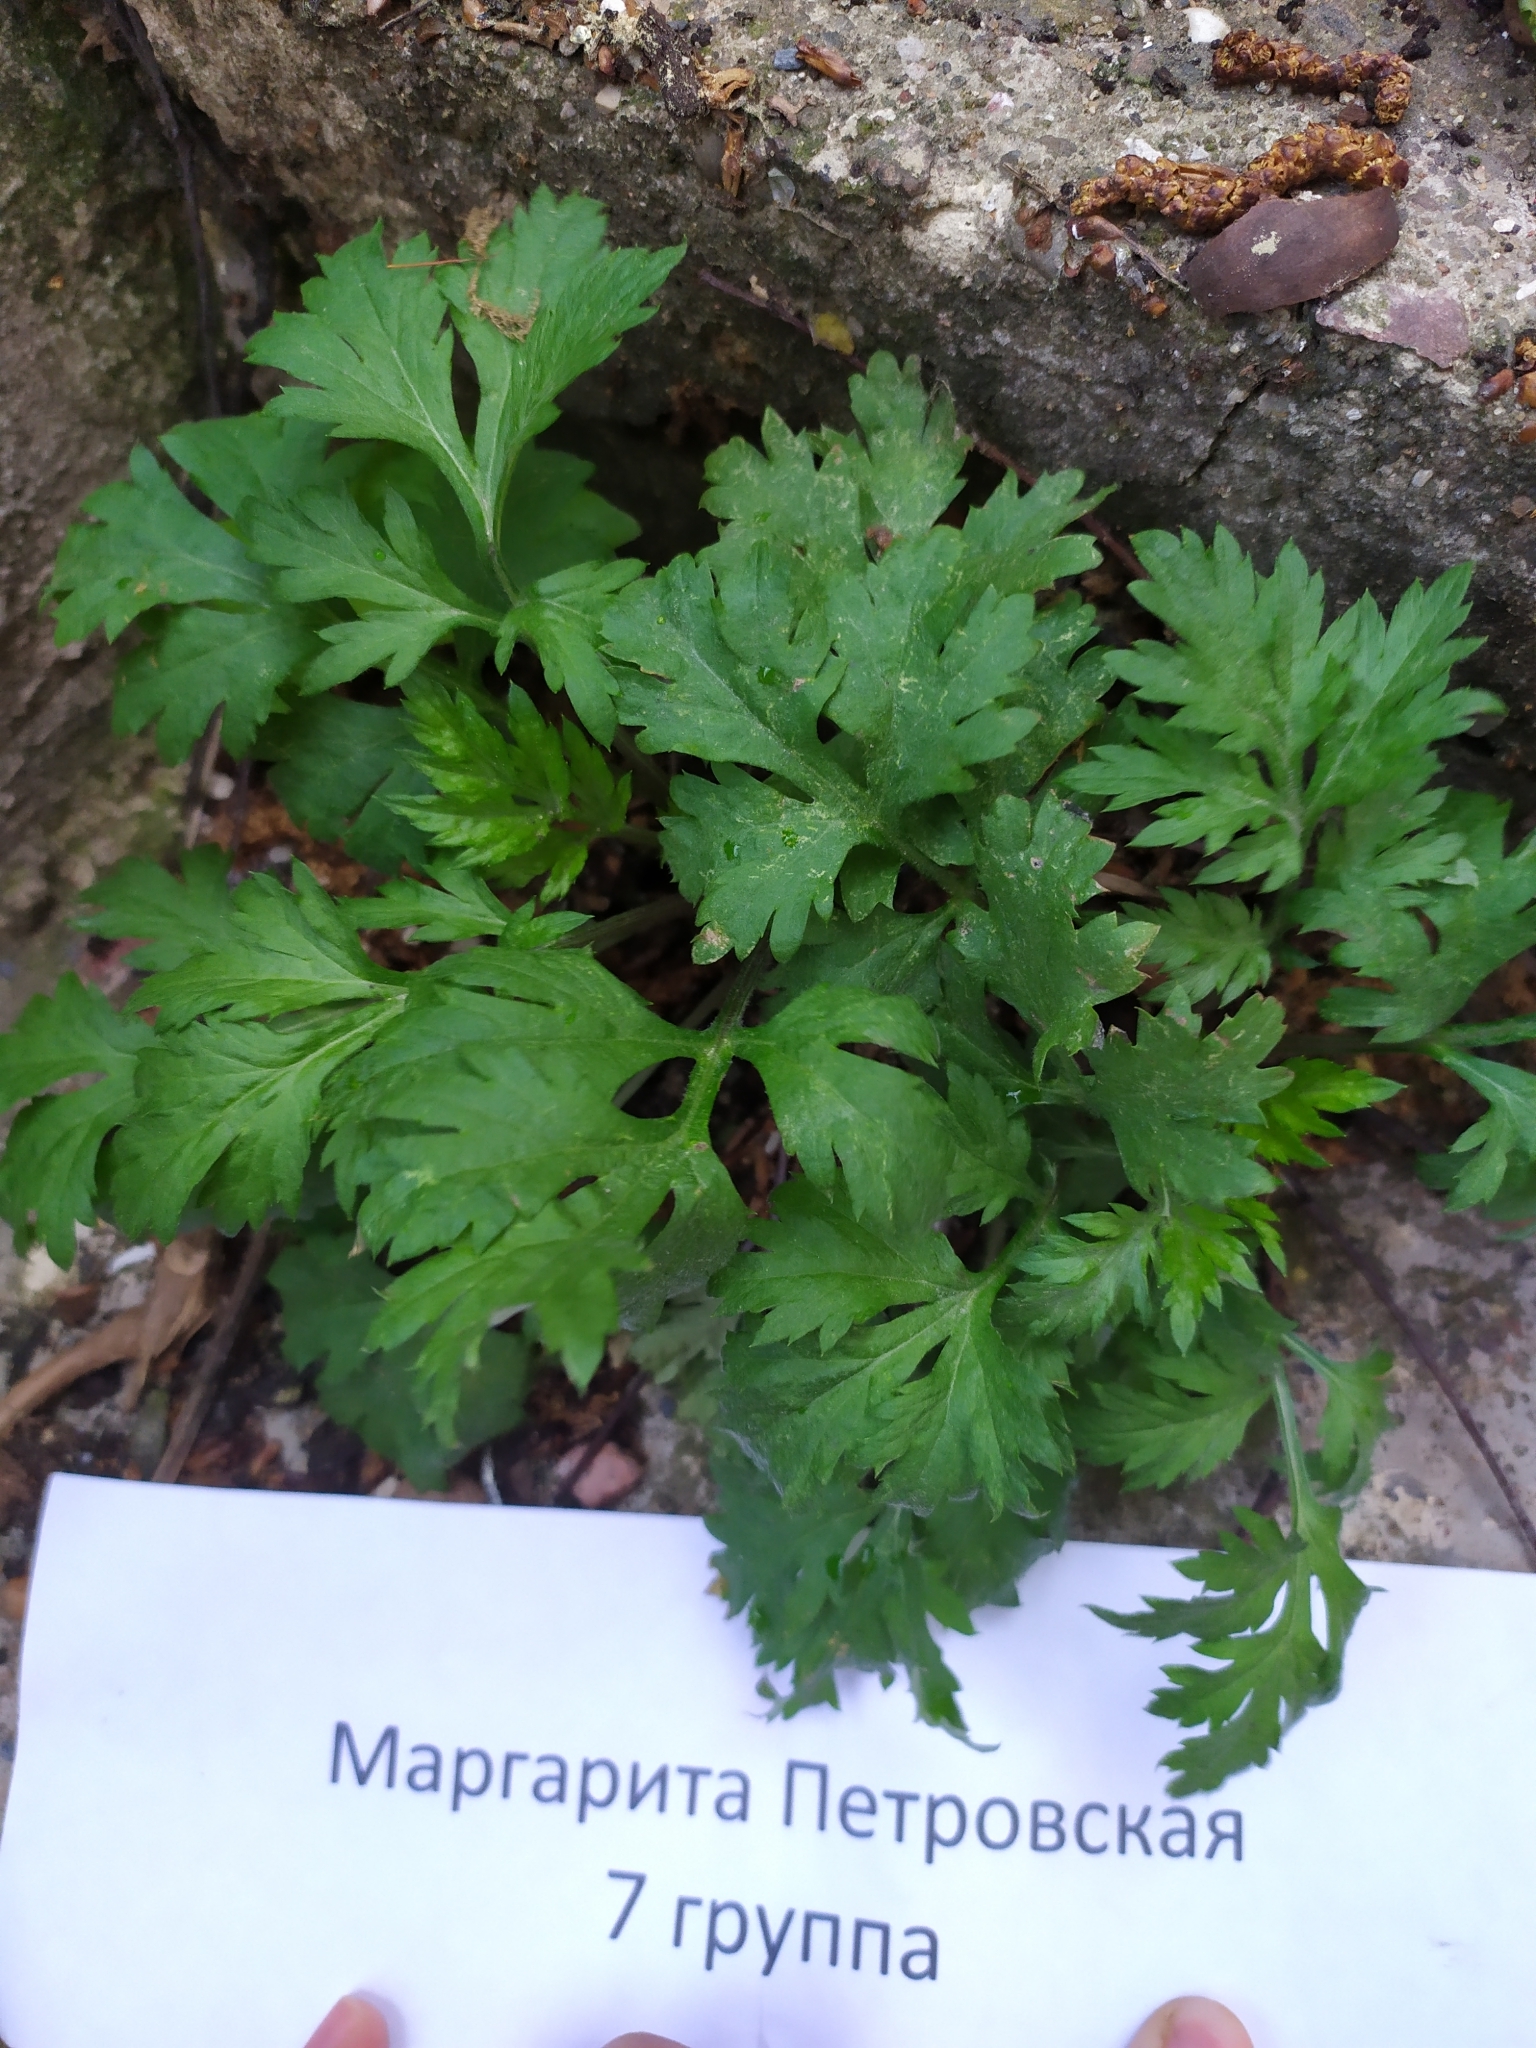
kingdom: Plantae
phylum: Tracheophyta
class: Magnoliopsida
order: Asterales
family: Asteraceae
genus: Artemisia
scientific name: Artemisia vulgaris
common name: Mugwort
